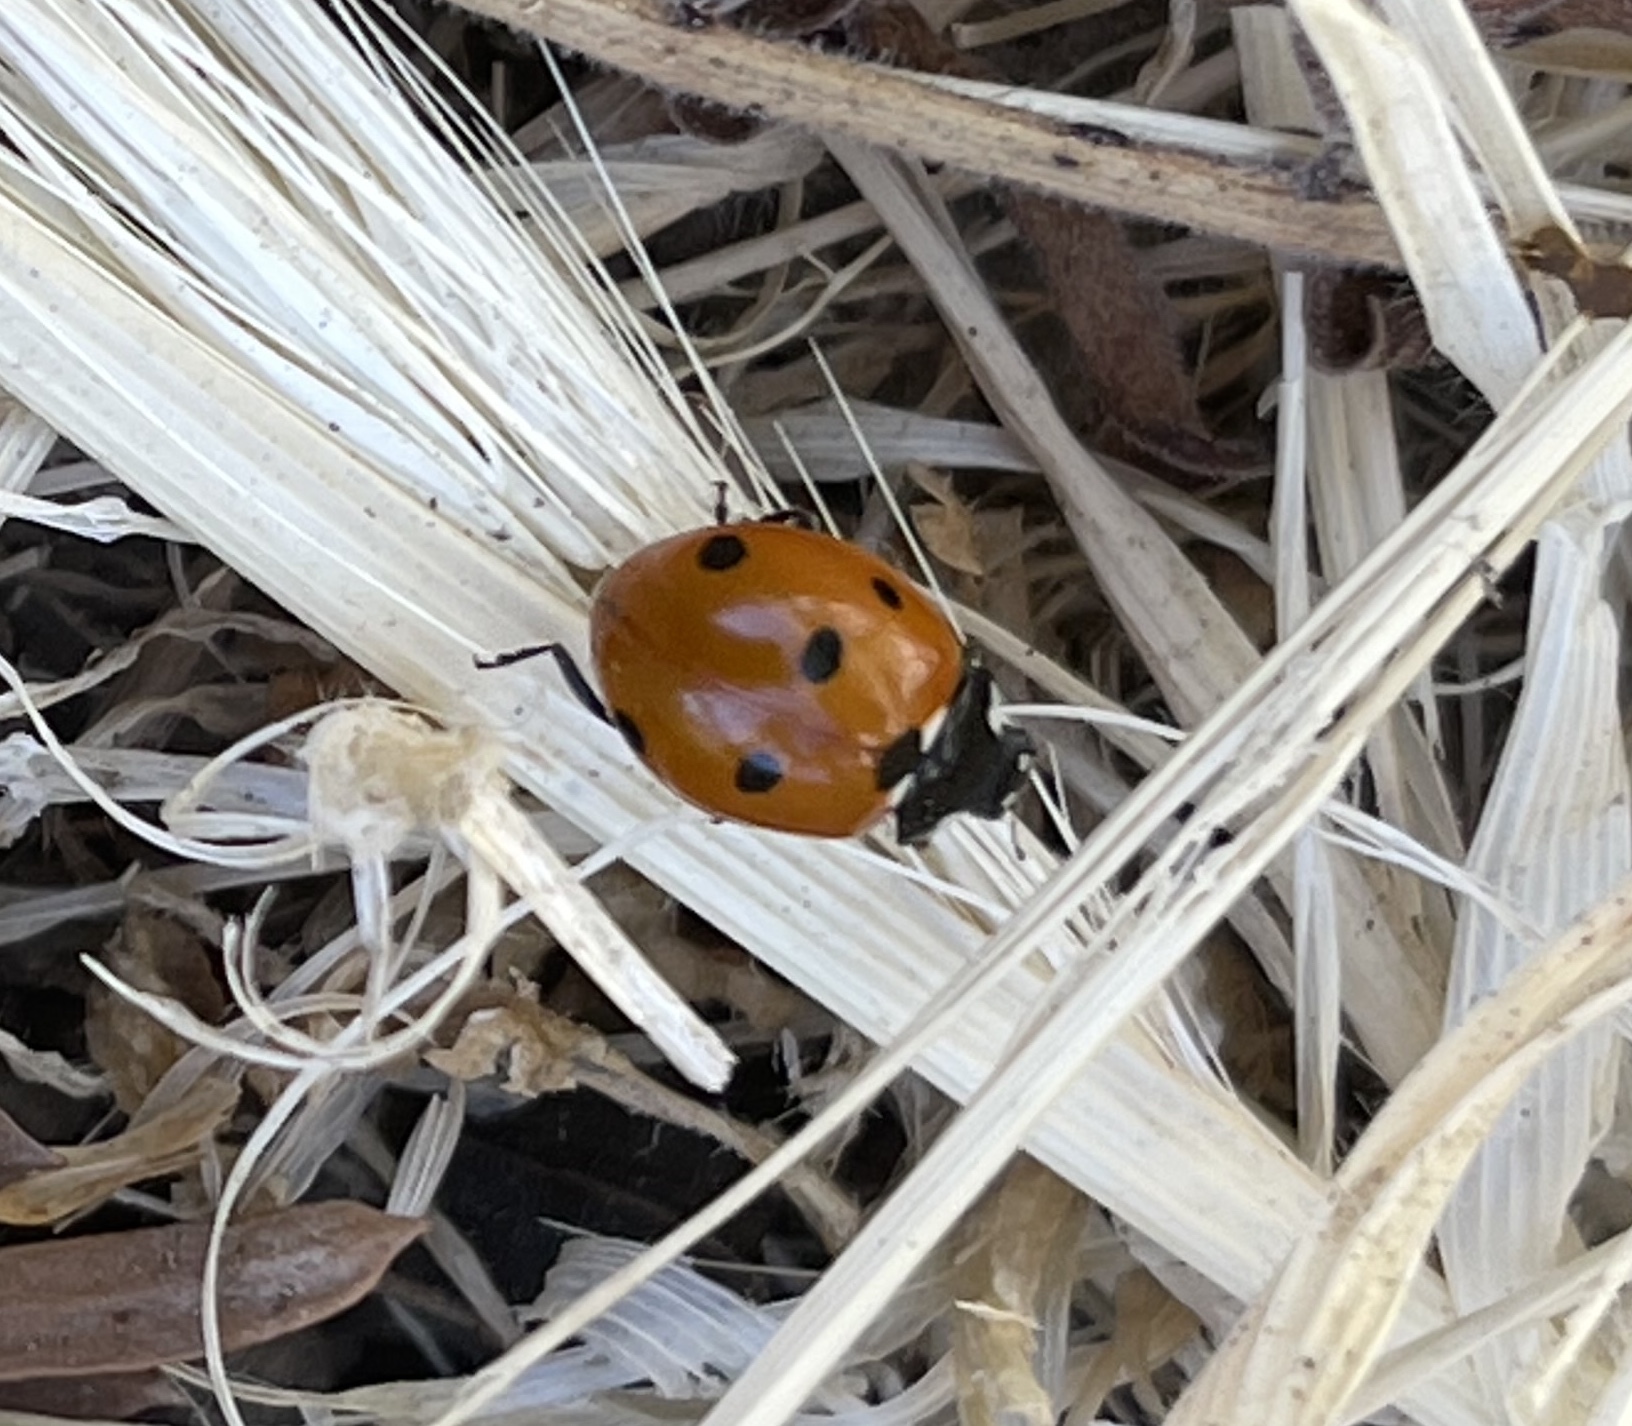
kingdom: Animalia
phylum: Arthropoda
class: Insecta
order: Coleoptera
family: Coccinellidae
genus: Coccinella
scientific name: Coccinella septempunctata
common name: Sevenspotted lady beetle
